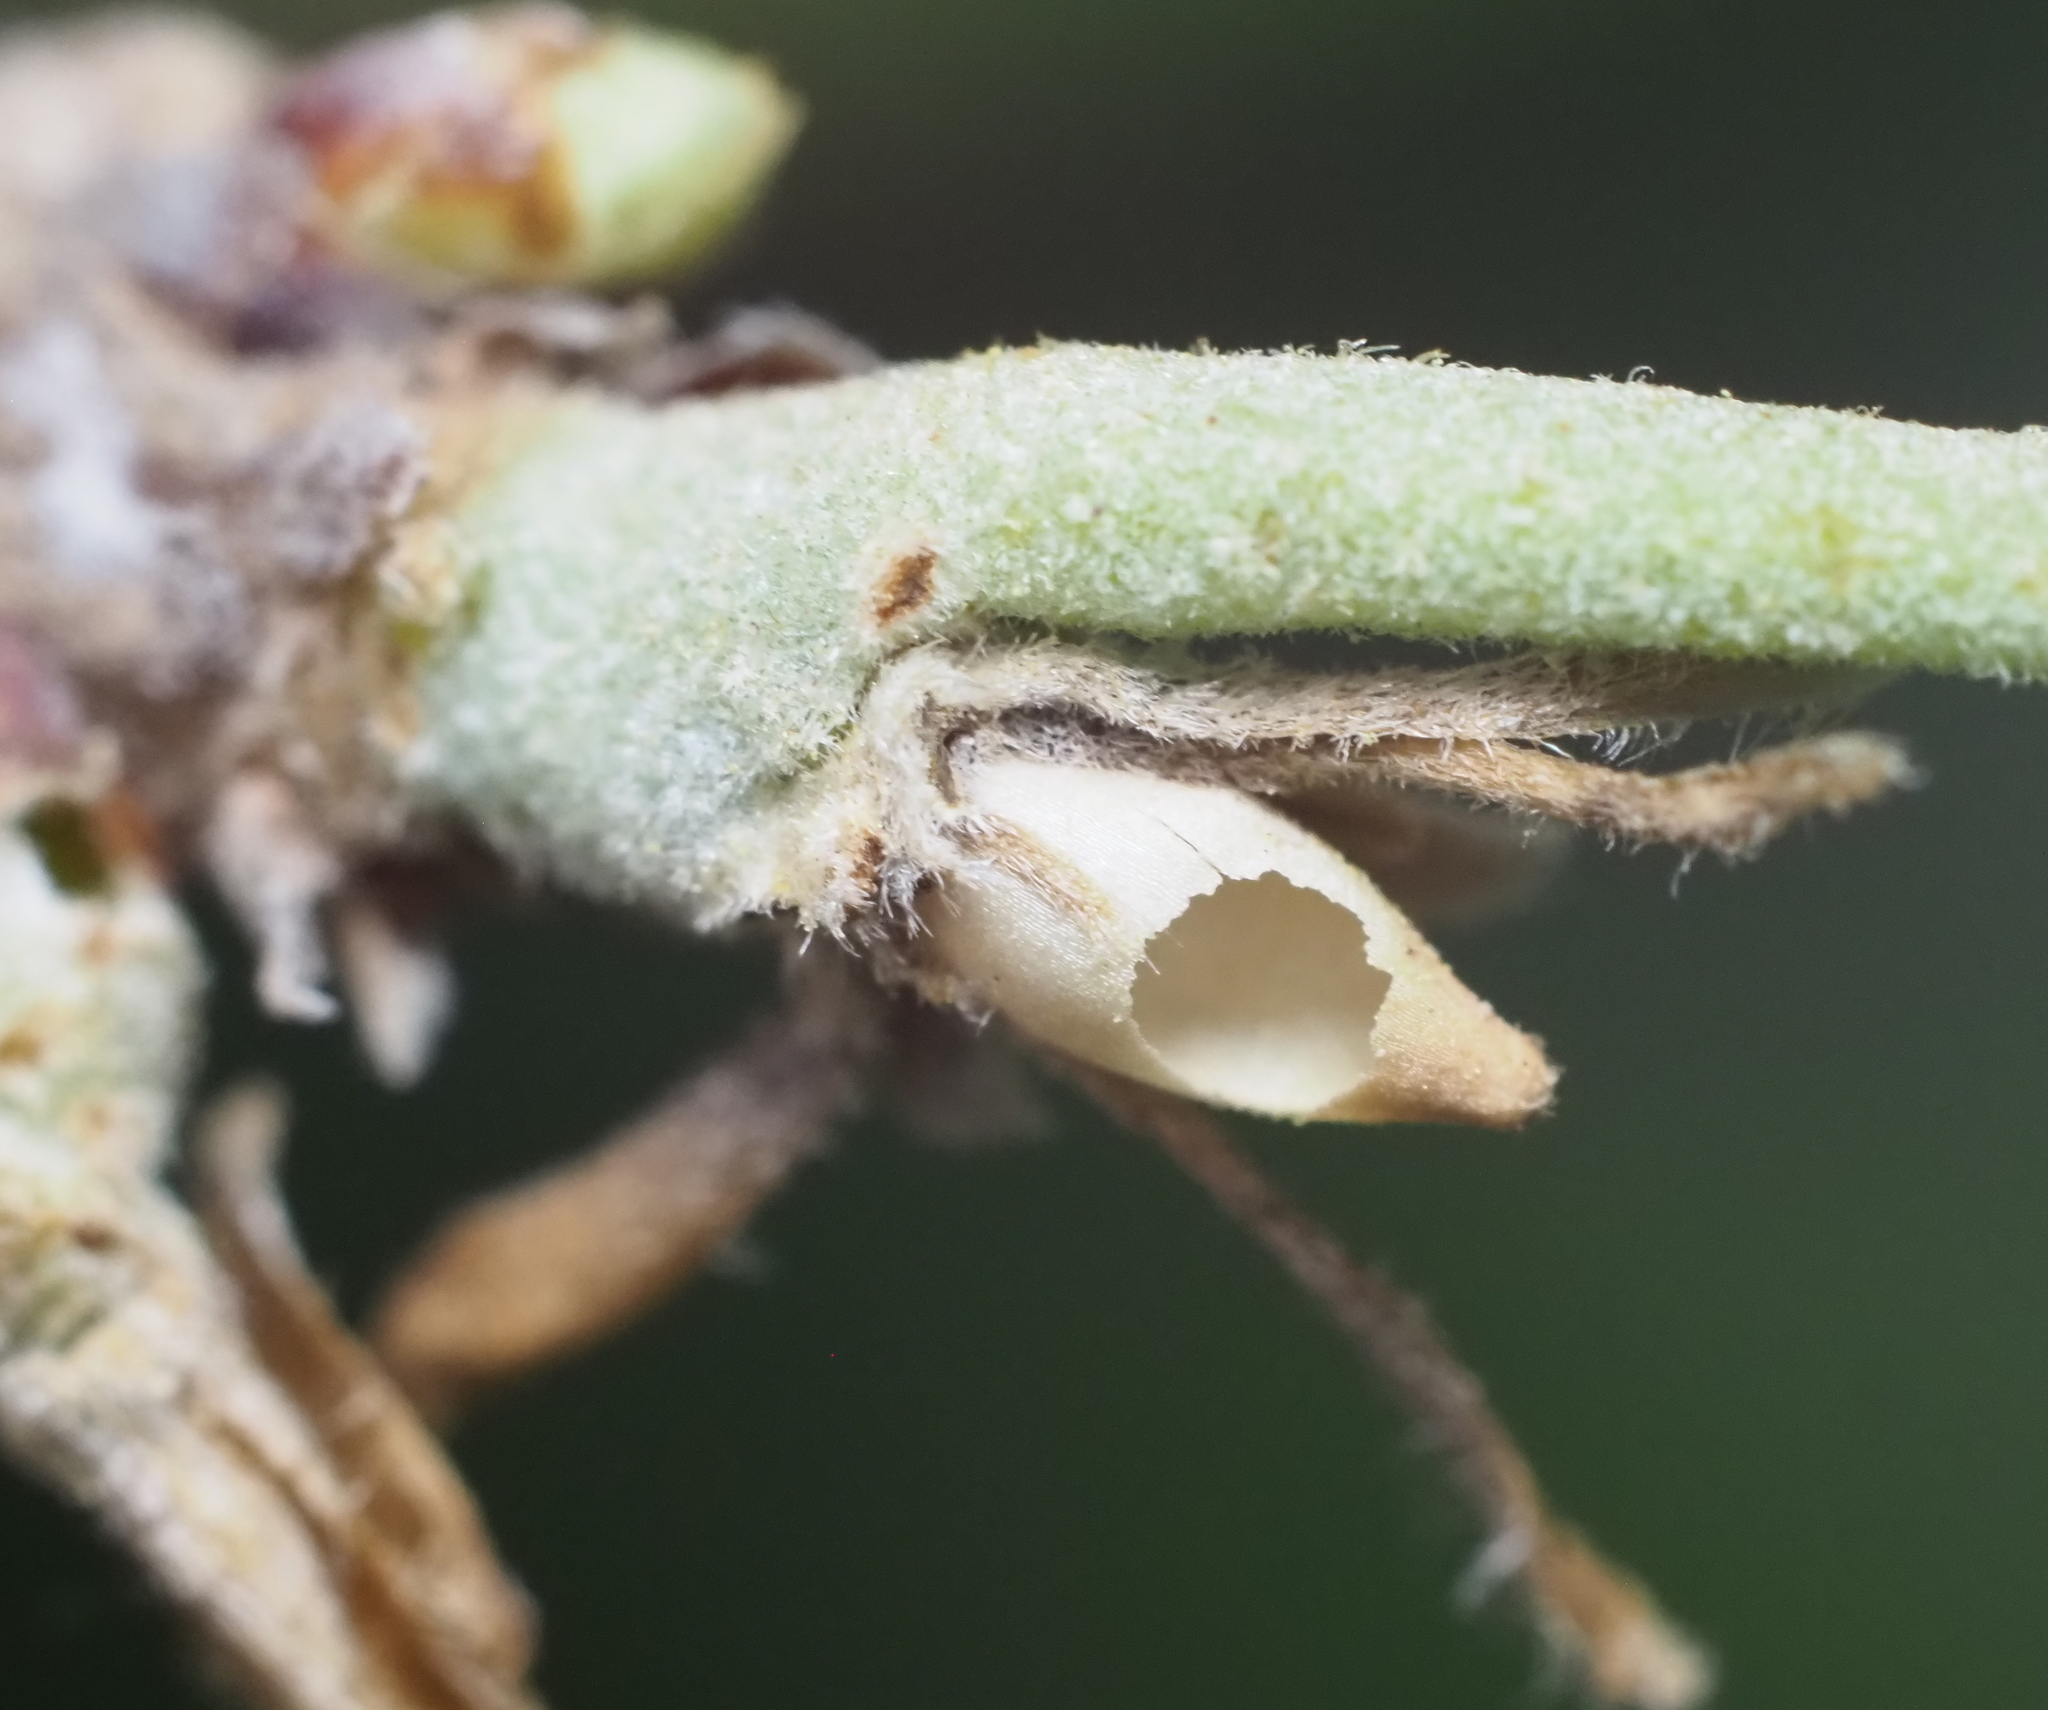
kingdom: Animalia
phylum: Arthropoda
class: Insecta
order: Hymenoptera
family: Cynipidae
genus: Disholcaspis
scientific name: Disholcaspis
